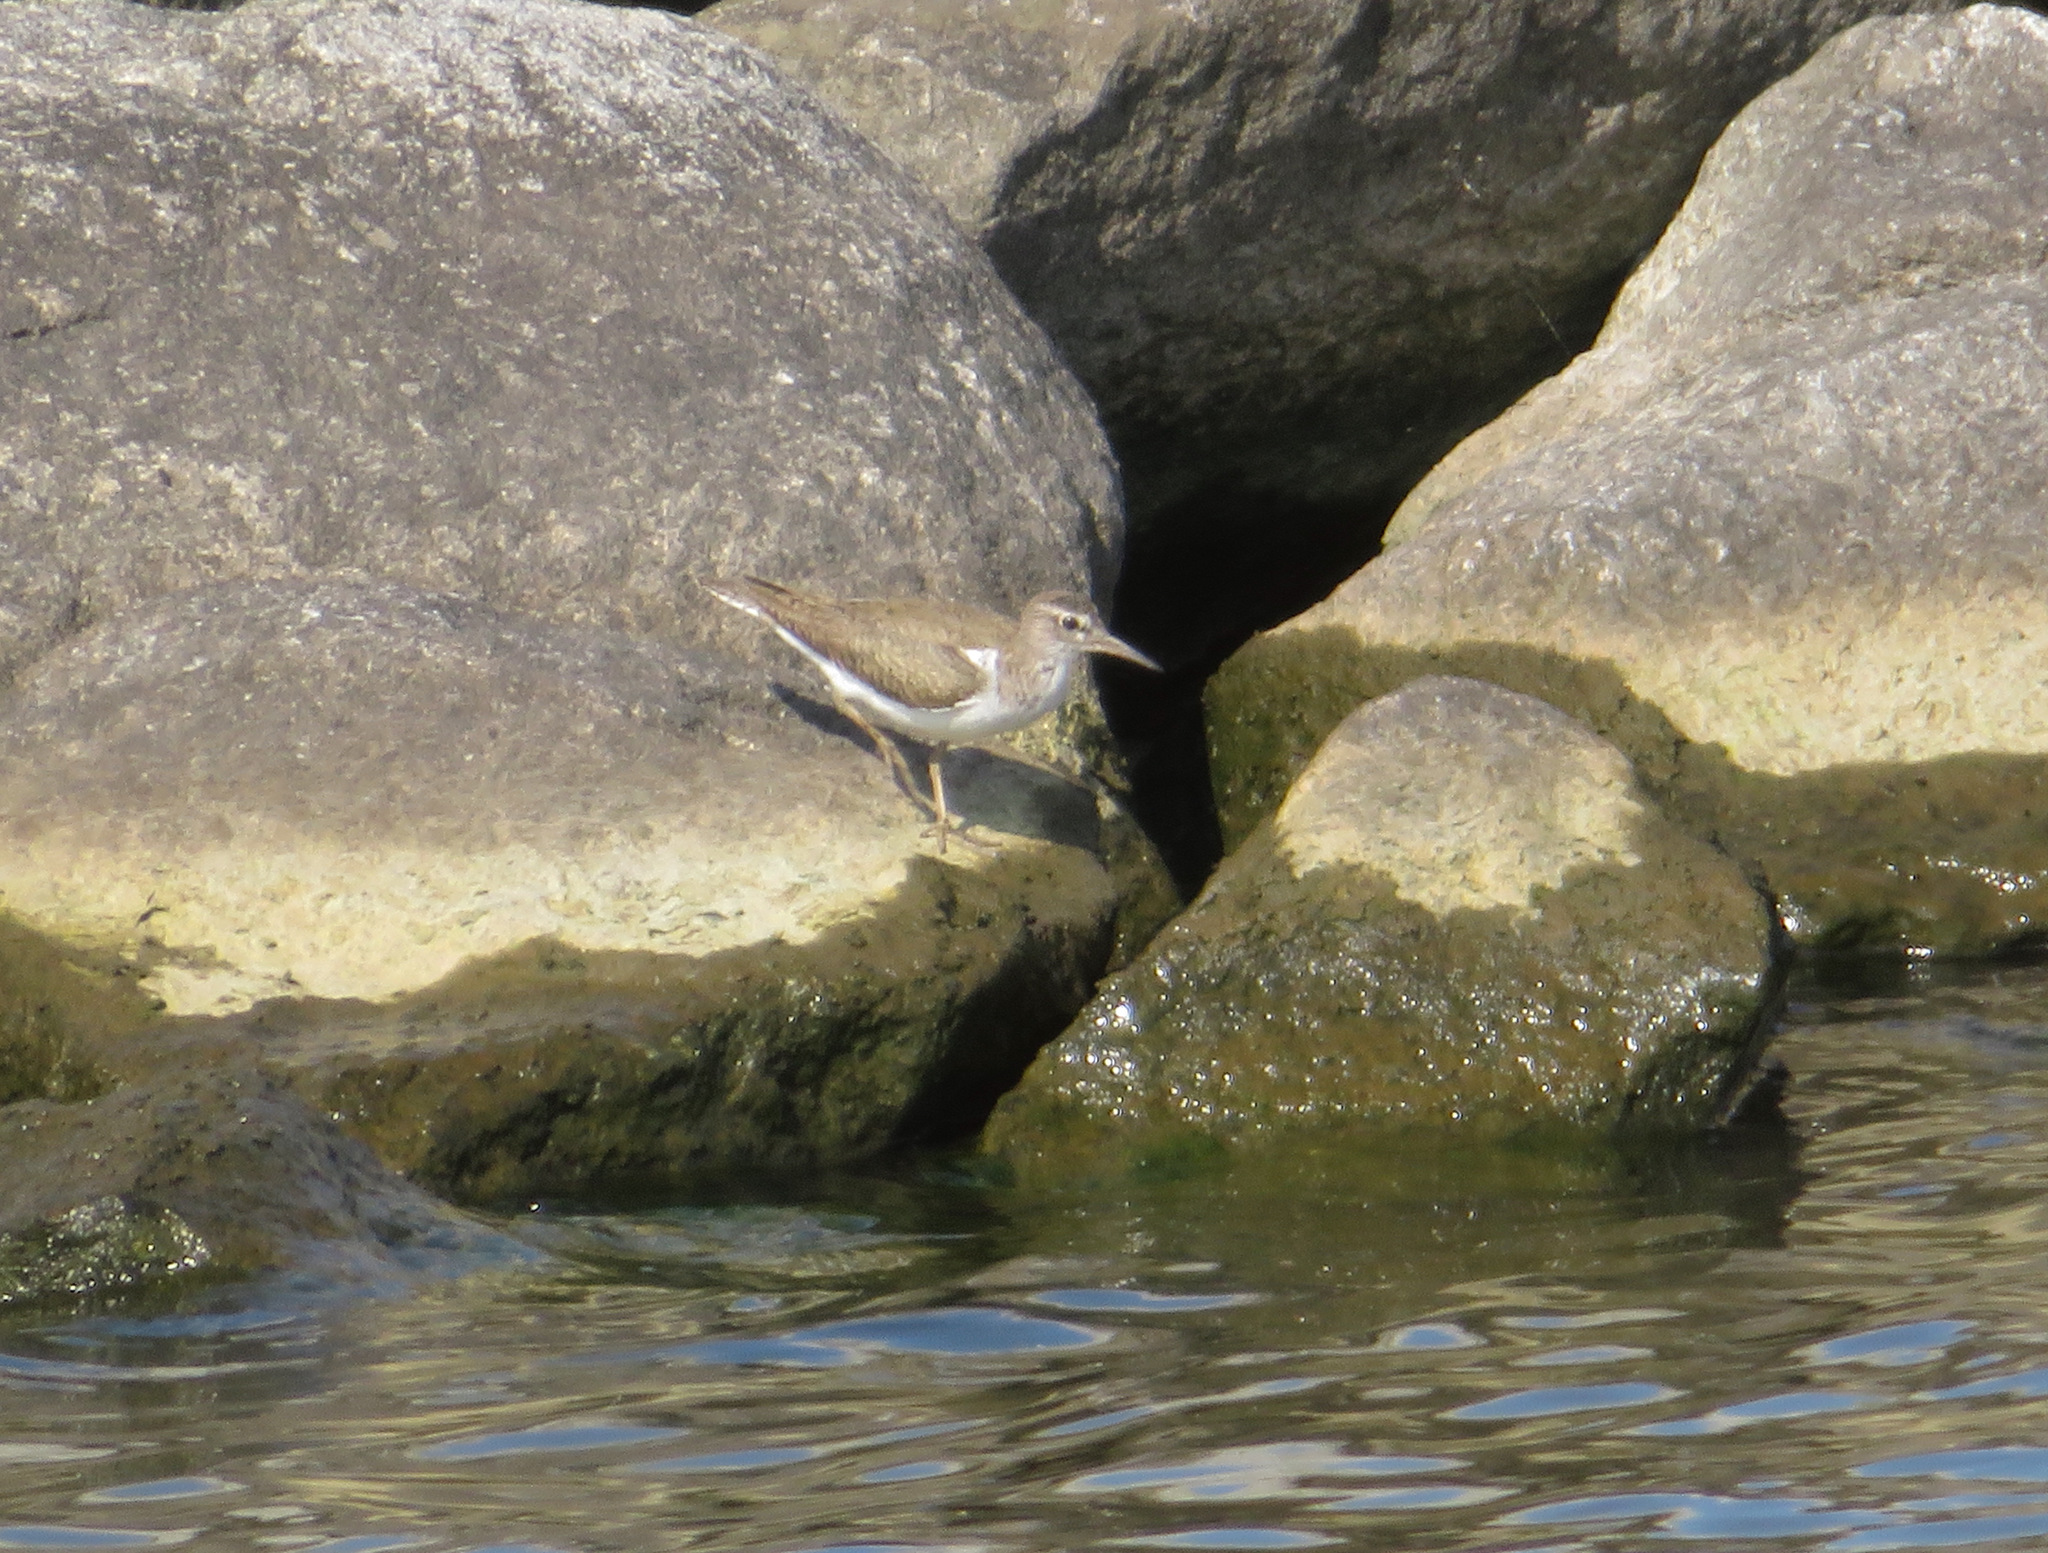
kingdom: Animalia
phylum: Chordata
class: Aves
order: Charadriiformes
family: Scolopacidae
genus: Actitis
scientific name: Actitis hypoleucos
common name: Common sandpiper
